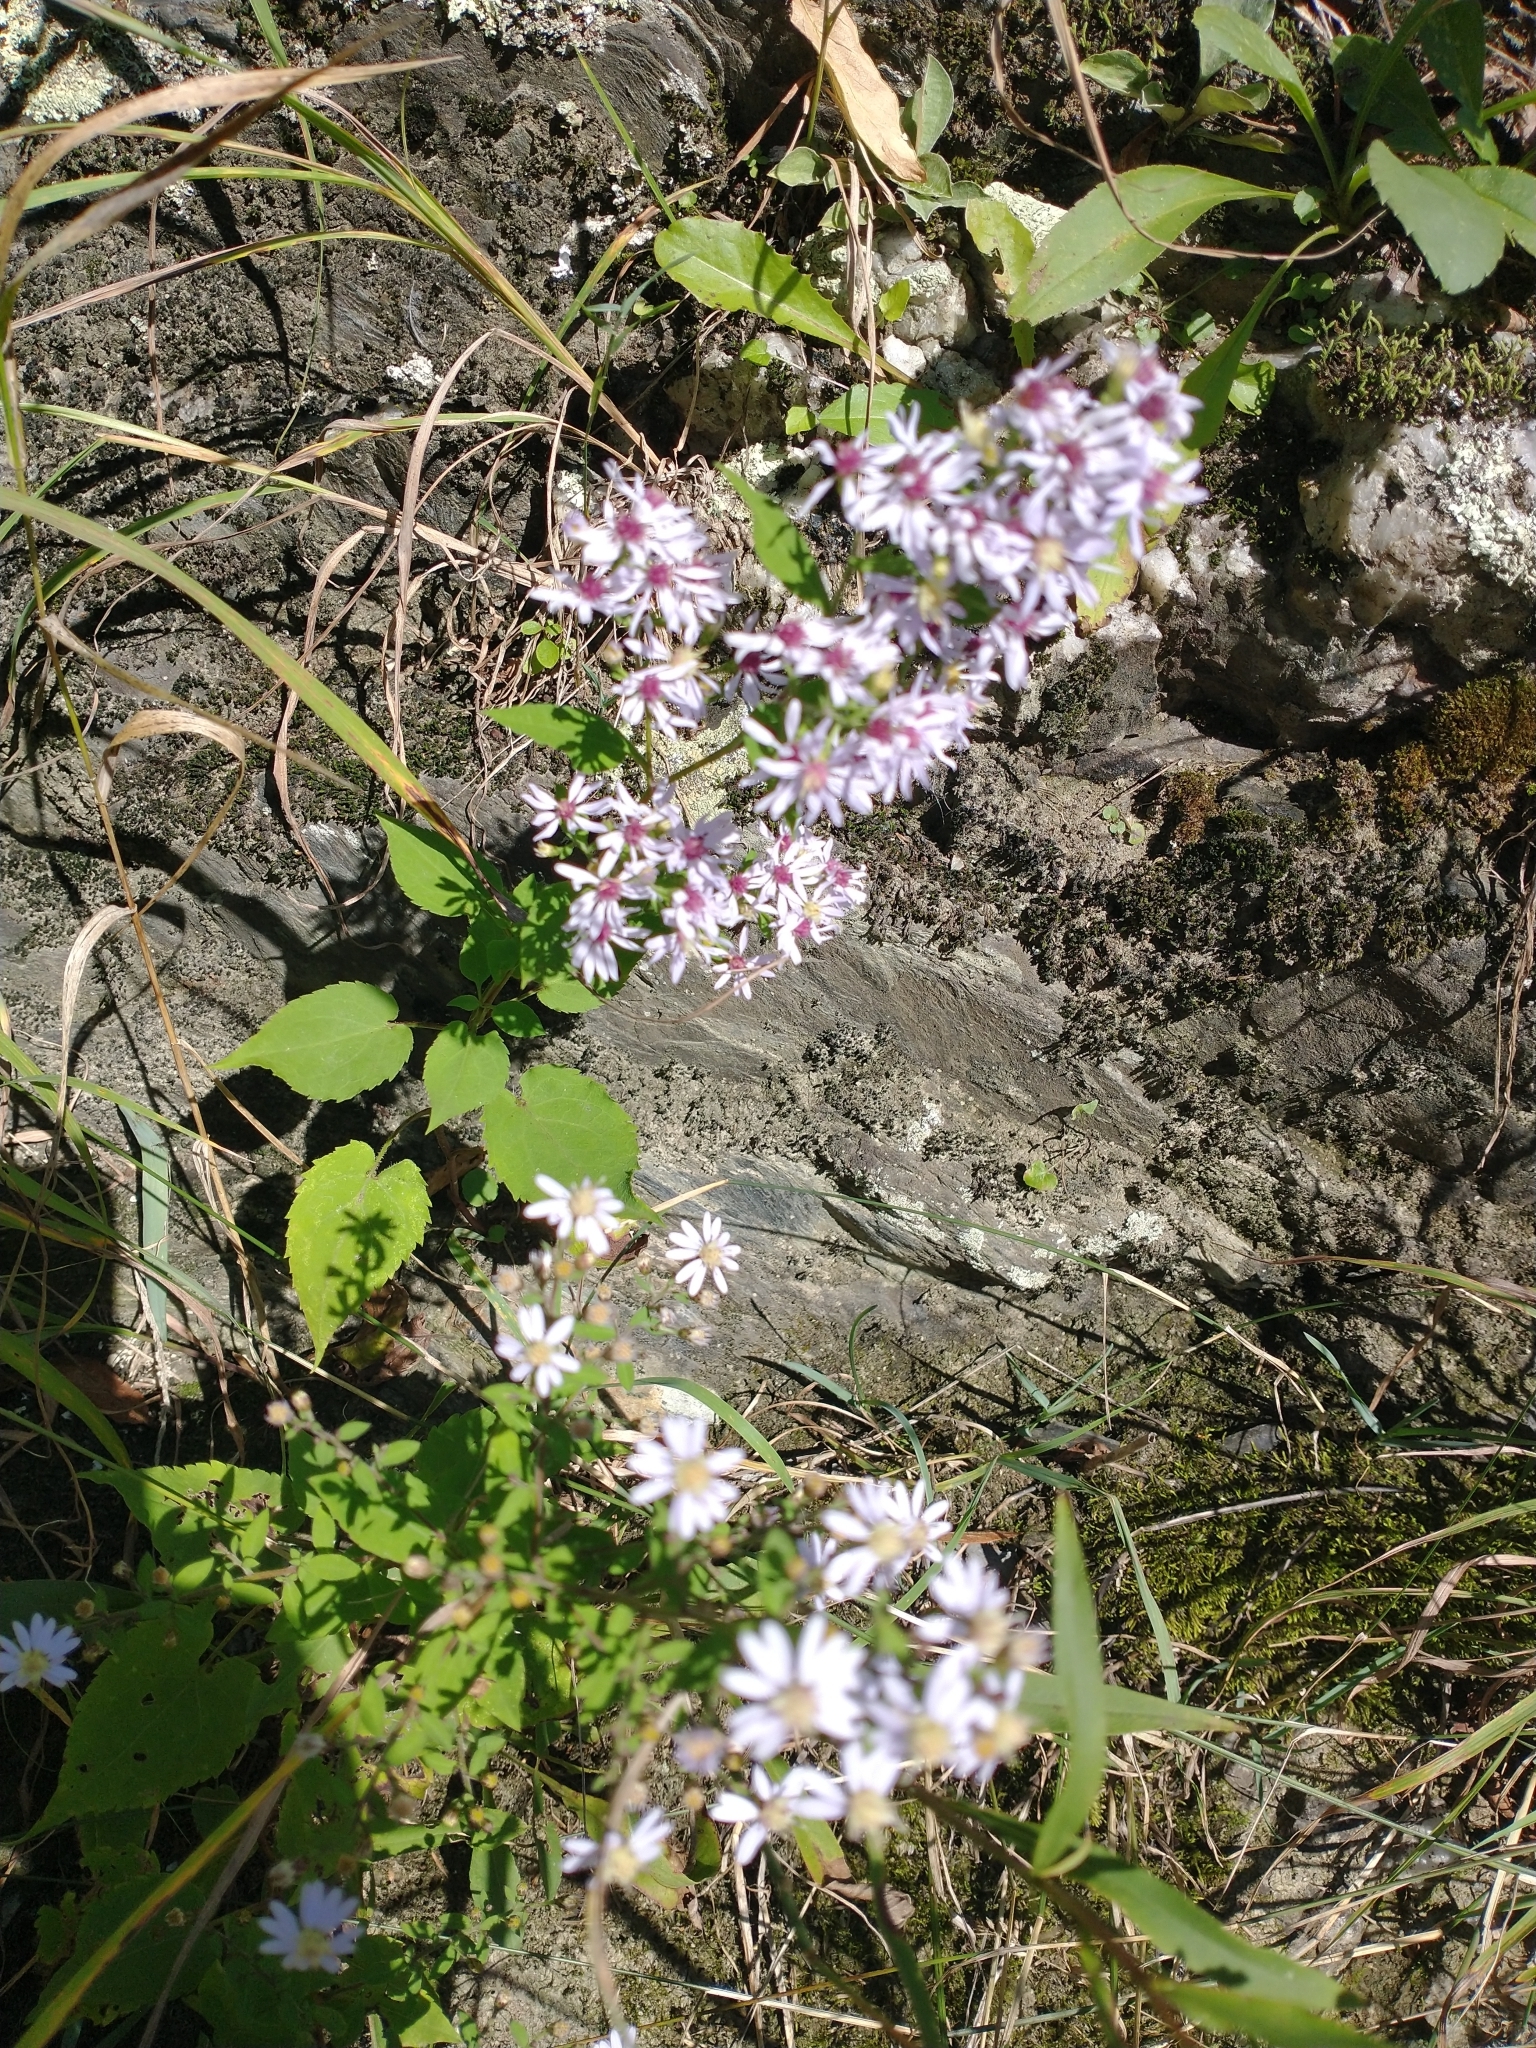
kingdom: Plantae
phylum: Tracheophyta
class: Magnoliopsida
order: Asterales
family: Asteraceae
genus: Symphyotrichum
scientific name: Symphyotrichum cordifolium
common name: Beeweed
